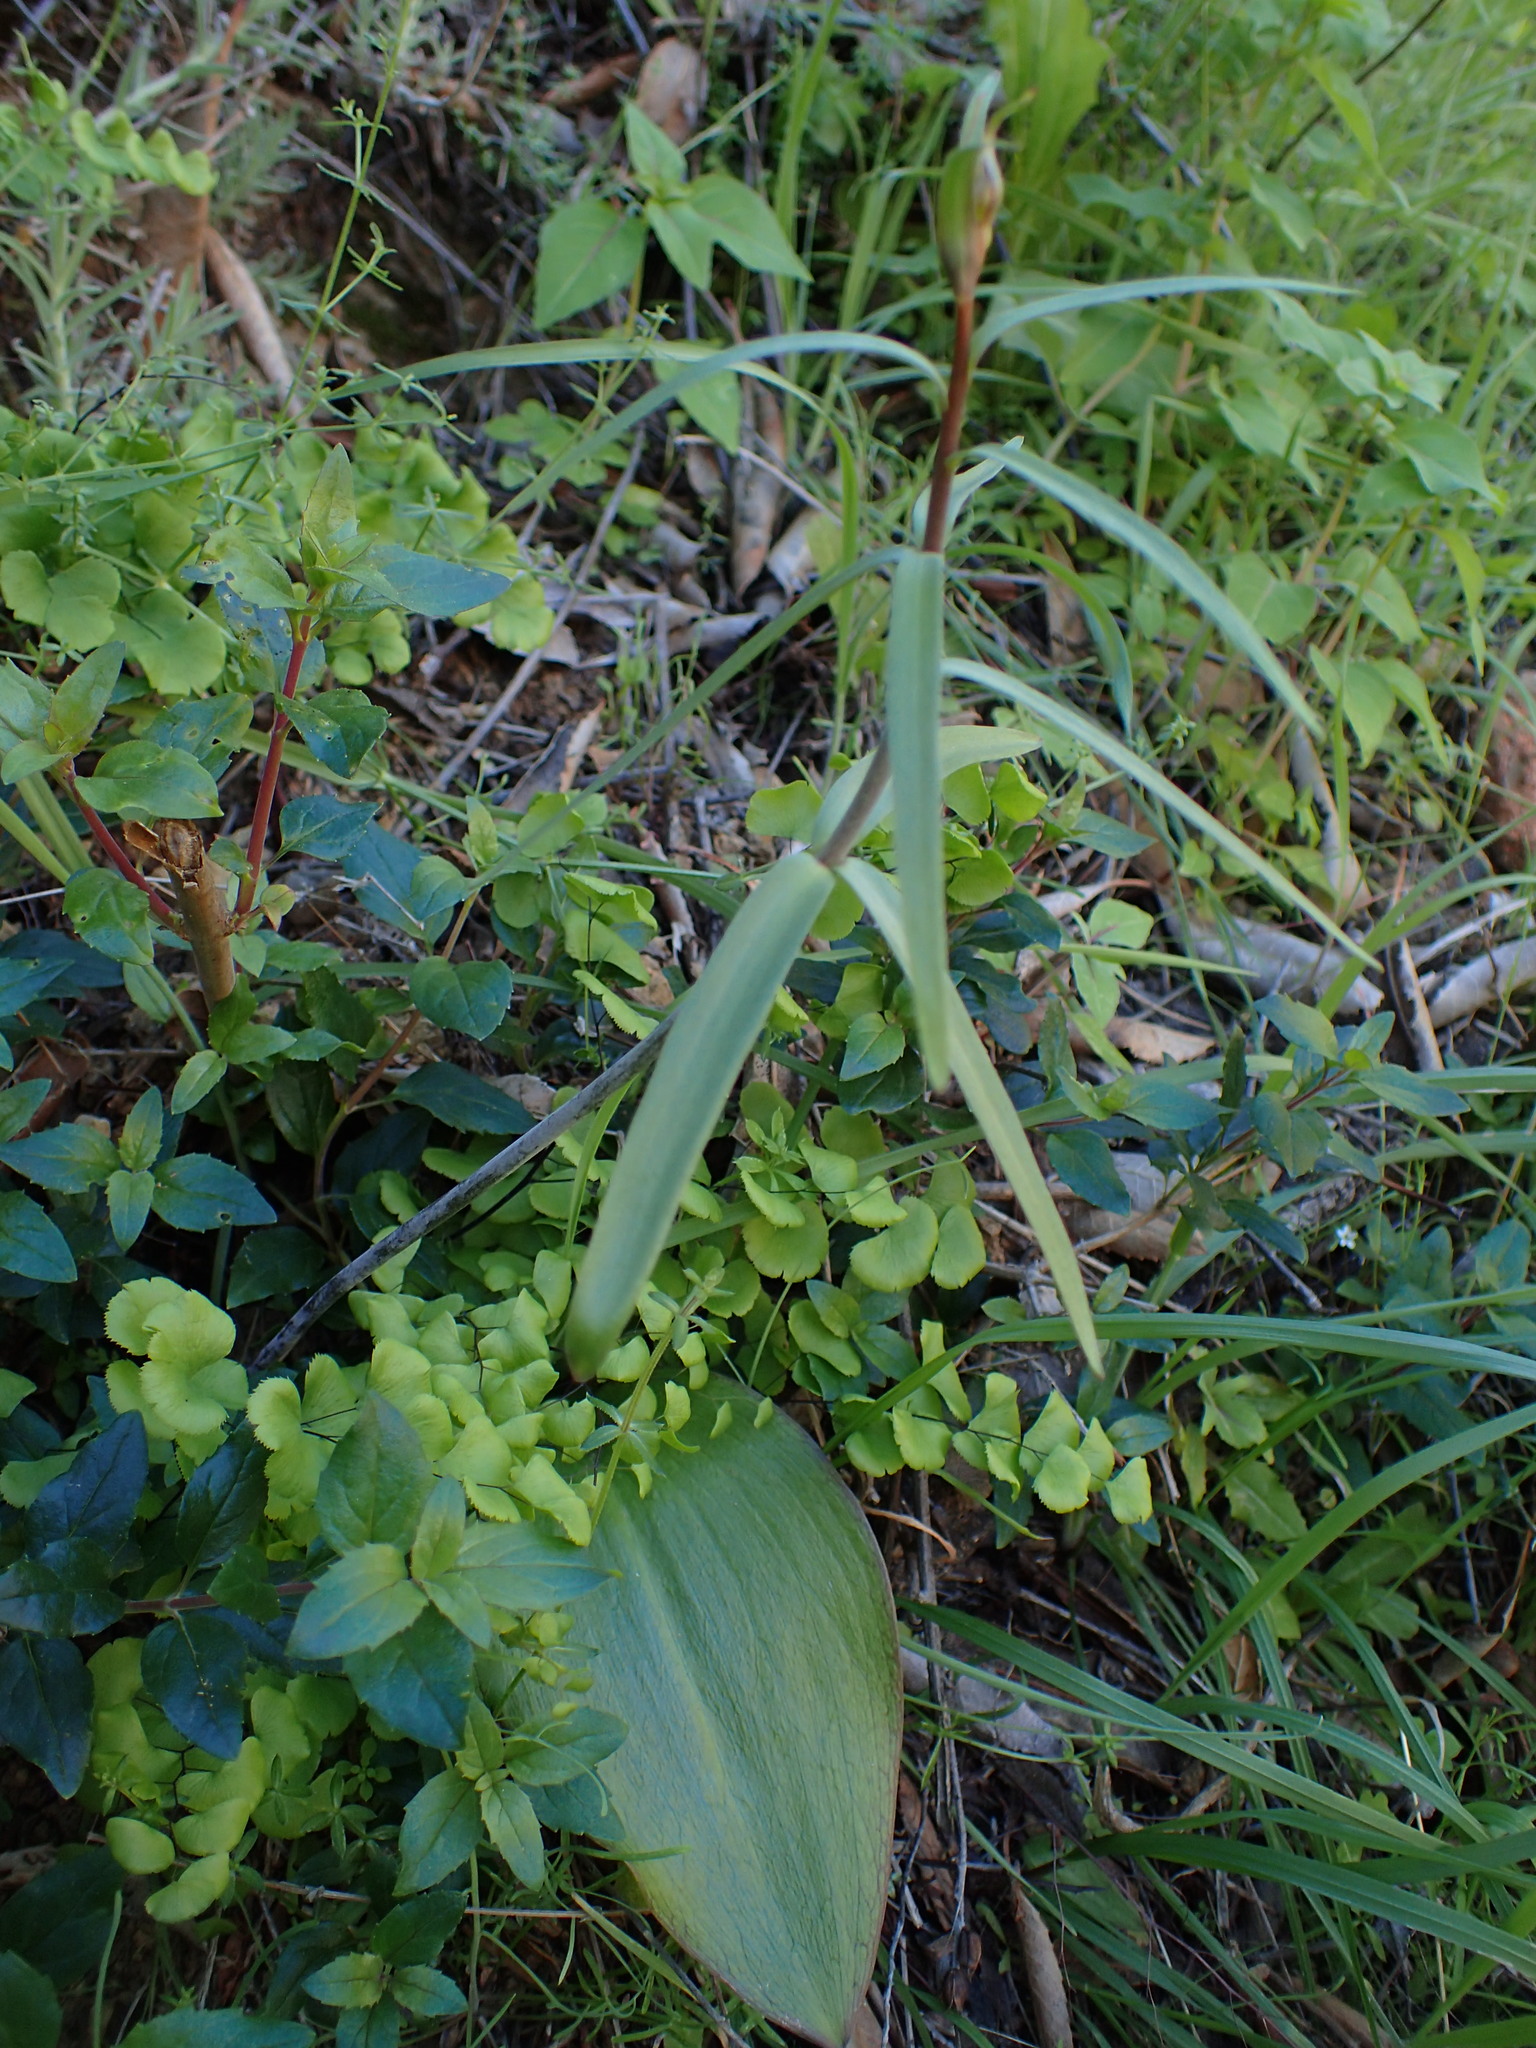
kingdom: Plantae
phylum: Tracheophyta
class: Liliopsida
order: Liliales
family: Liliaceae
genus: Fritillaria
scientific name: Fritillaria ojaiensis
